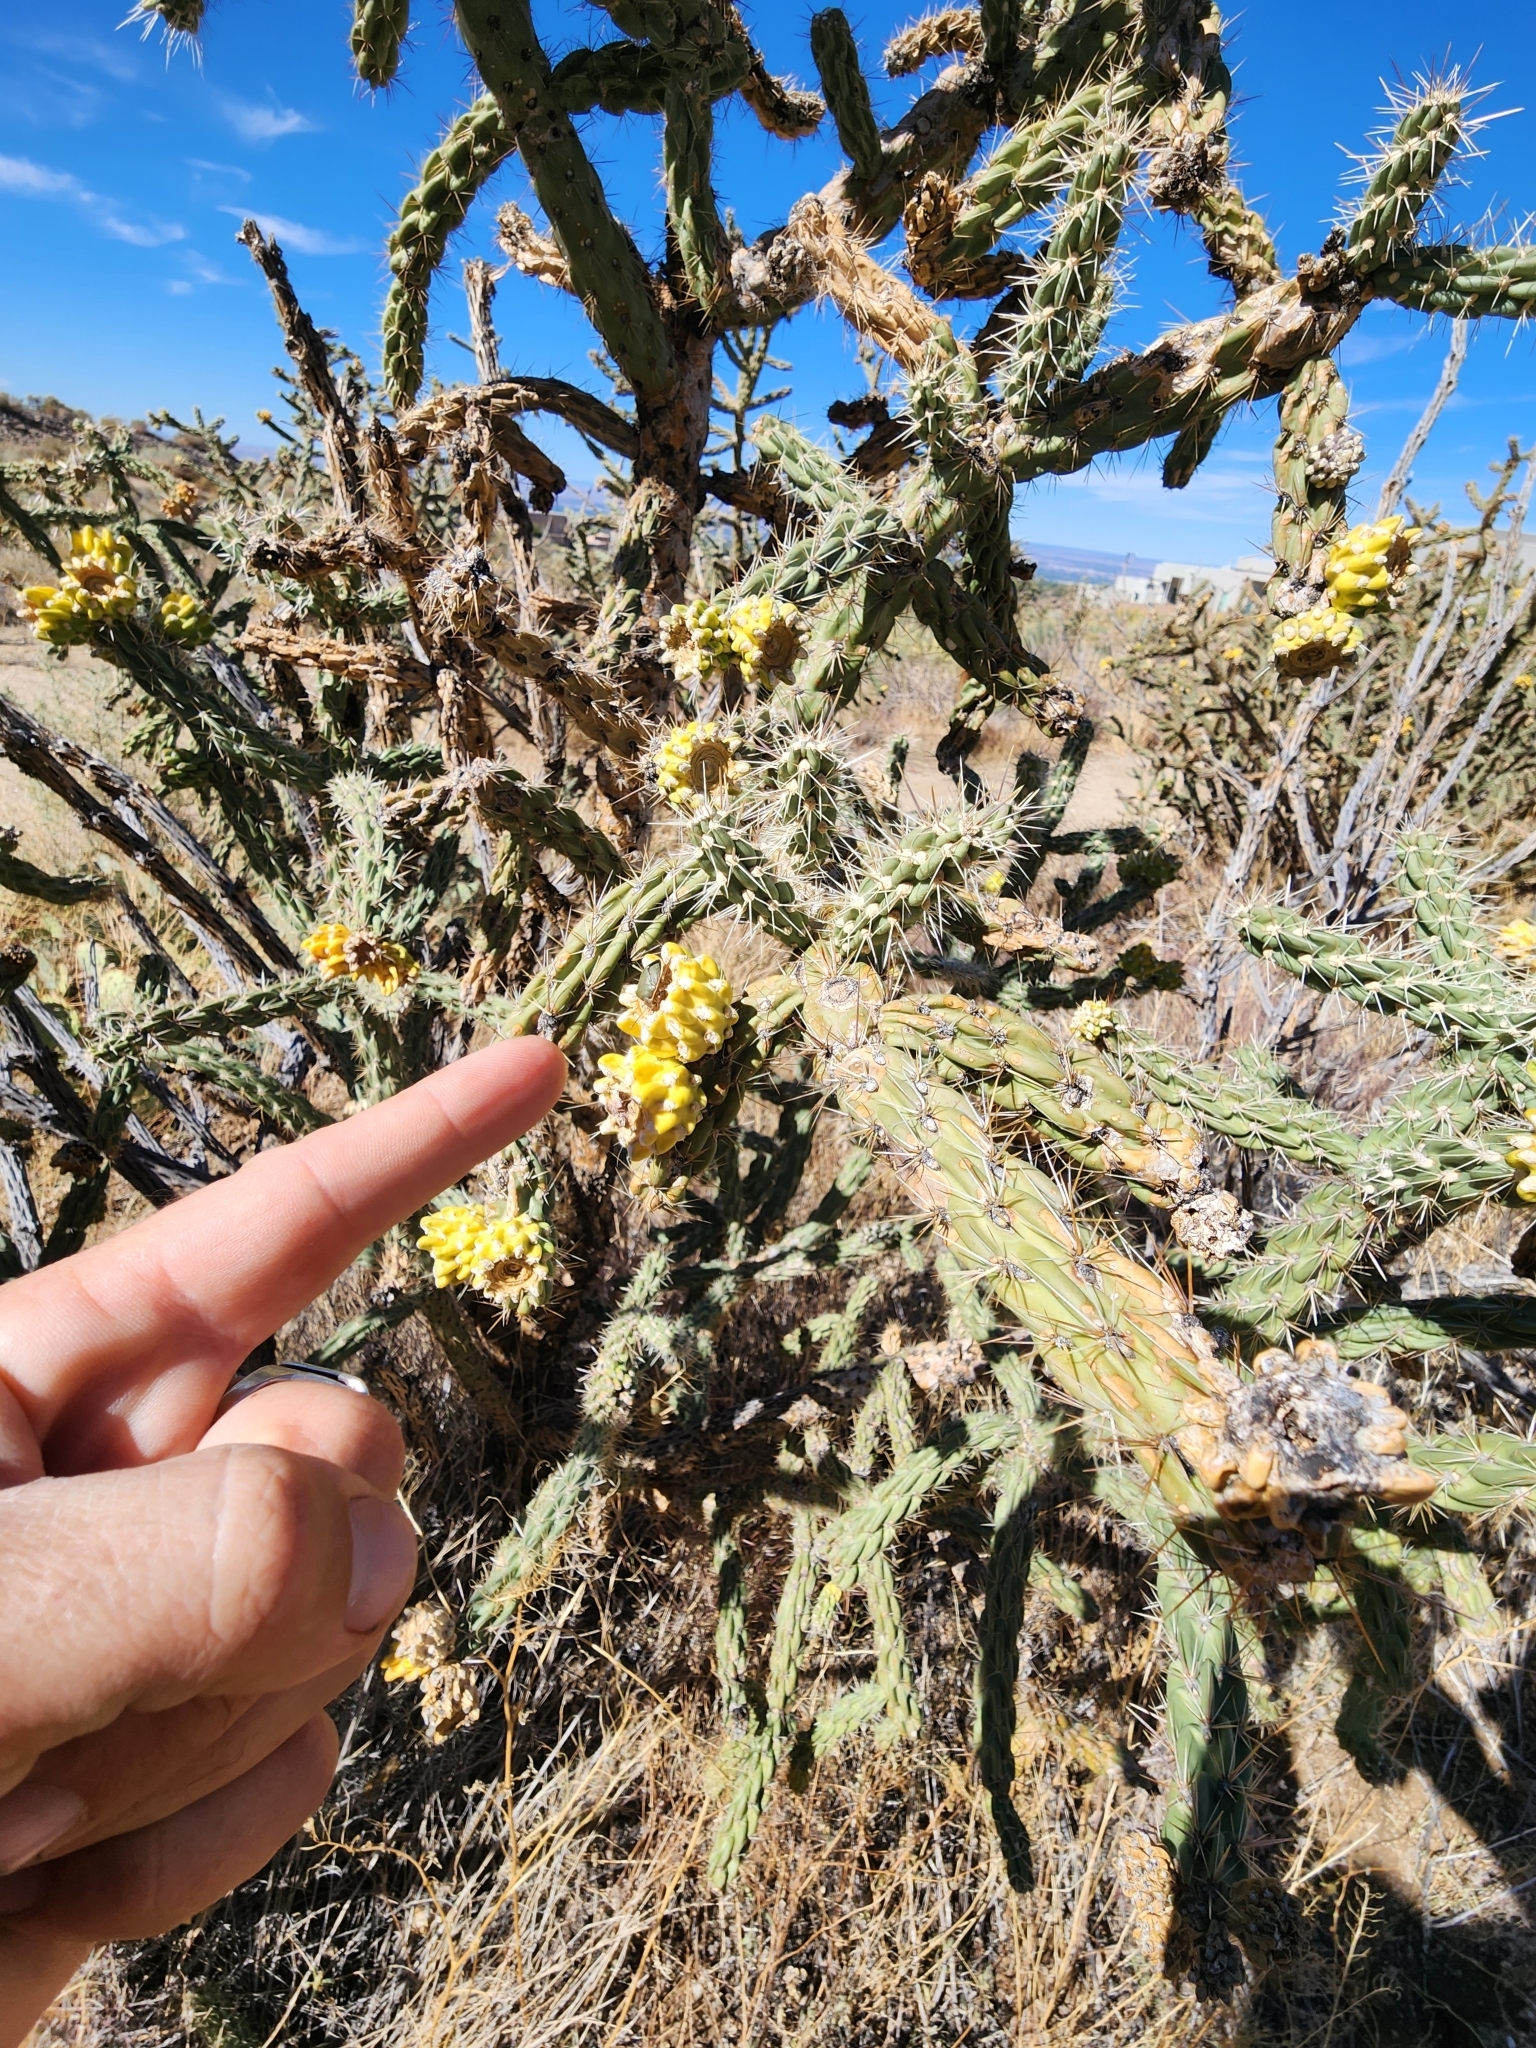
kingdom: Animalia
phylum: Arthropoda
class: Insecta
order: Hemiptera
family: Pentatomidae
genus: Chlorochroa
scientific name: Chlorochroa opuntiae
